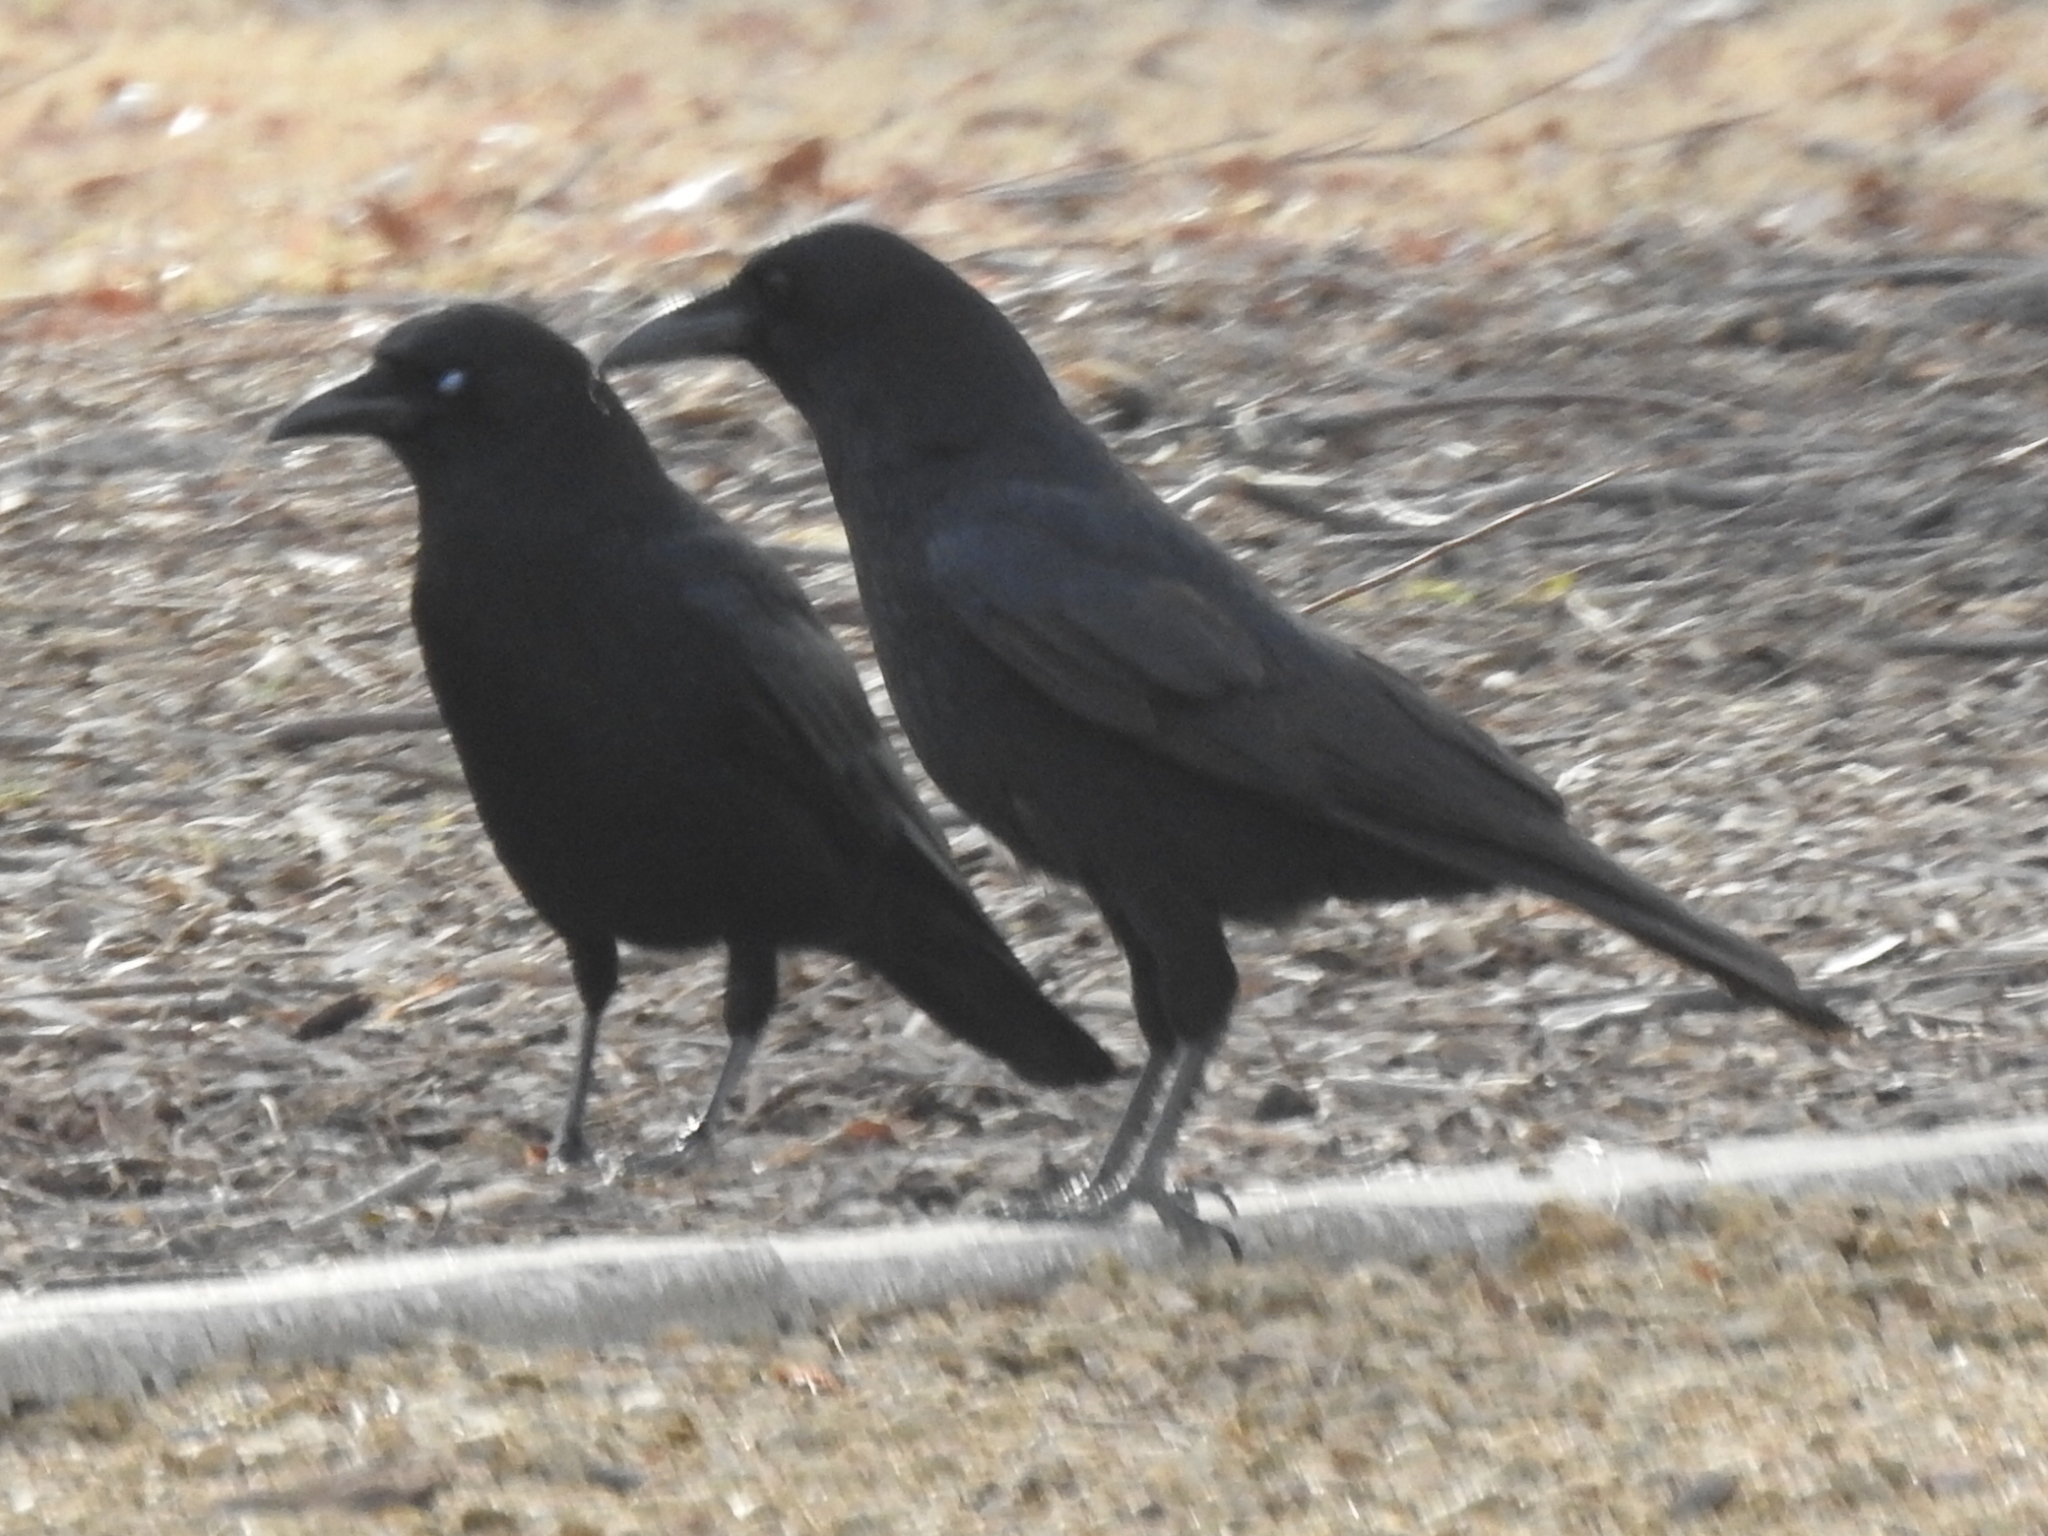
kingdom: Animalia
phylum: Chordata
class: Aves
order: Passeriformes
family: Corvidae
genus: Corvus
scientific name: Corvus brachyrhynchos
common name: American crow
